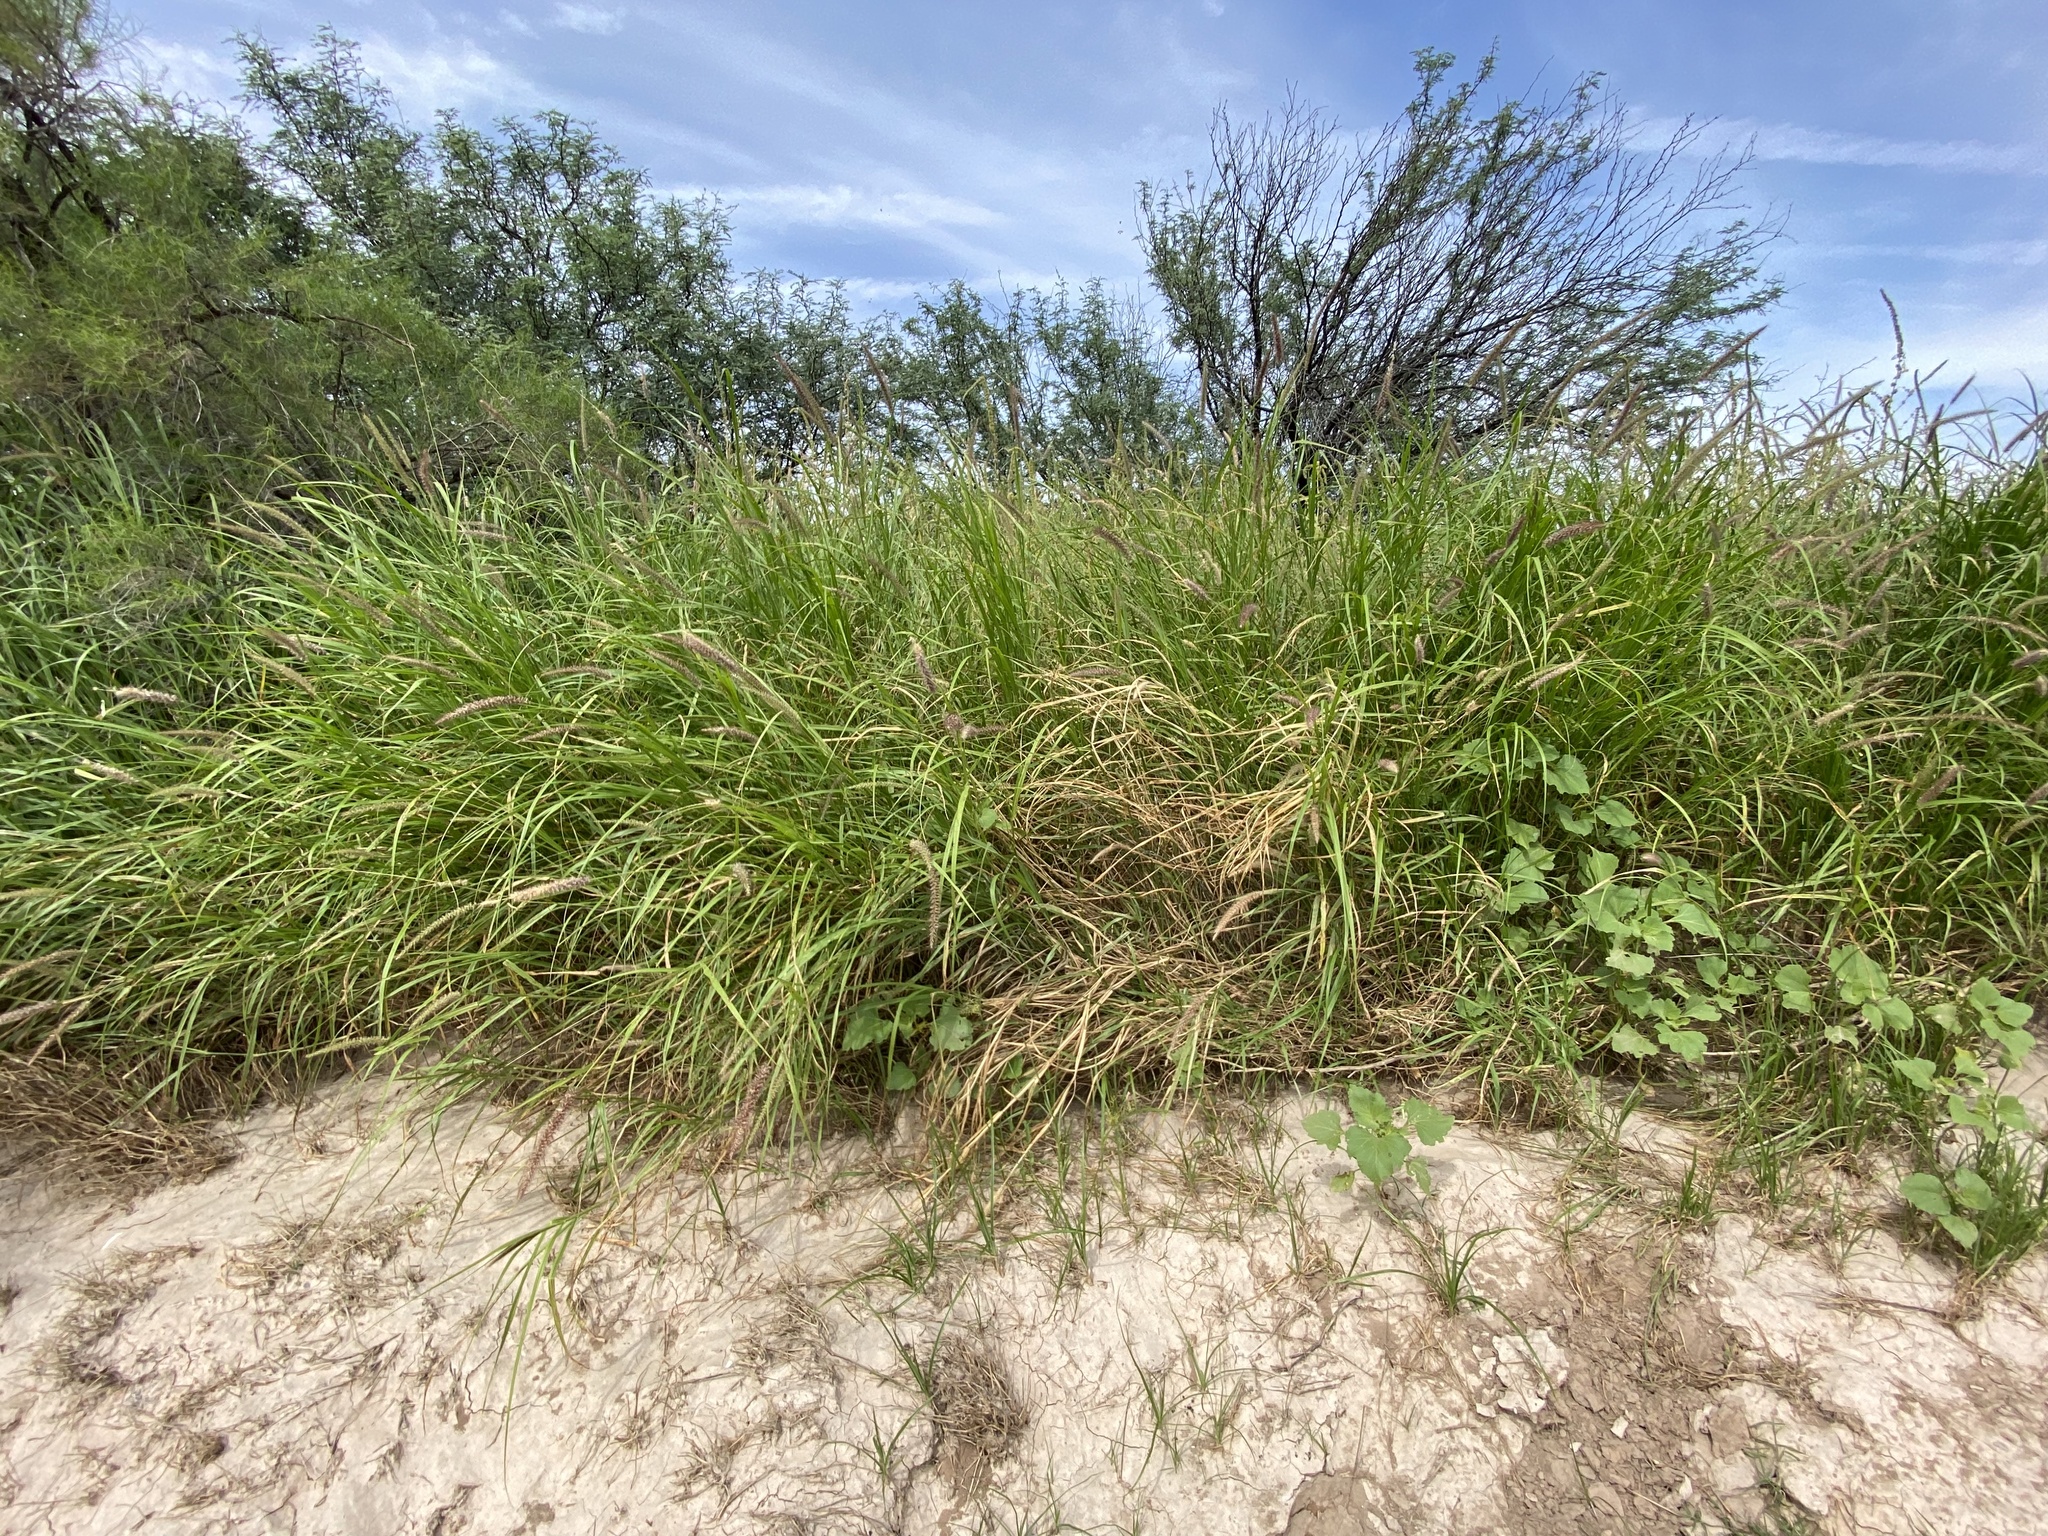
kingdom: Plantae
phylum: Tracheophyta
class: Liliopsida
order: Poales
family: Poaceae
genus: Cenchrus
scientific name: Cenchrus ciliaris
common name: Buffelgrass
